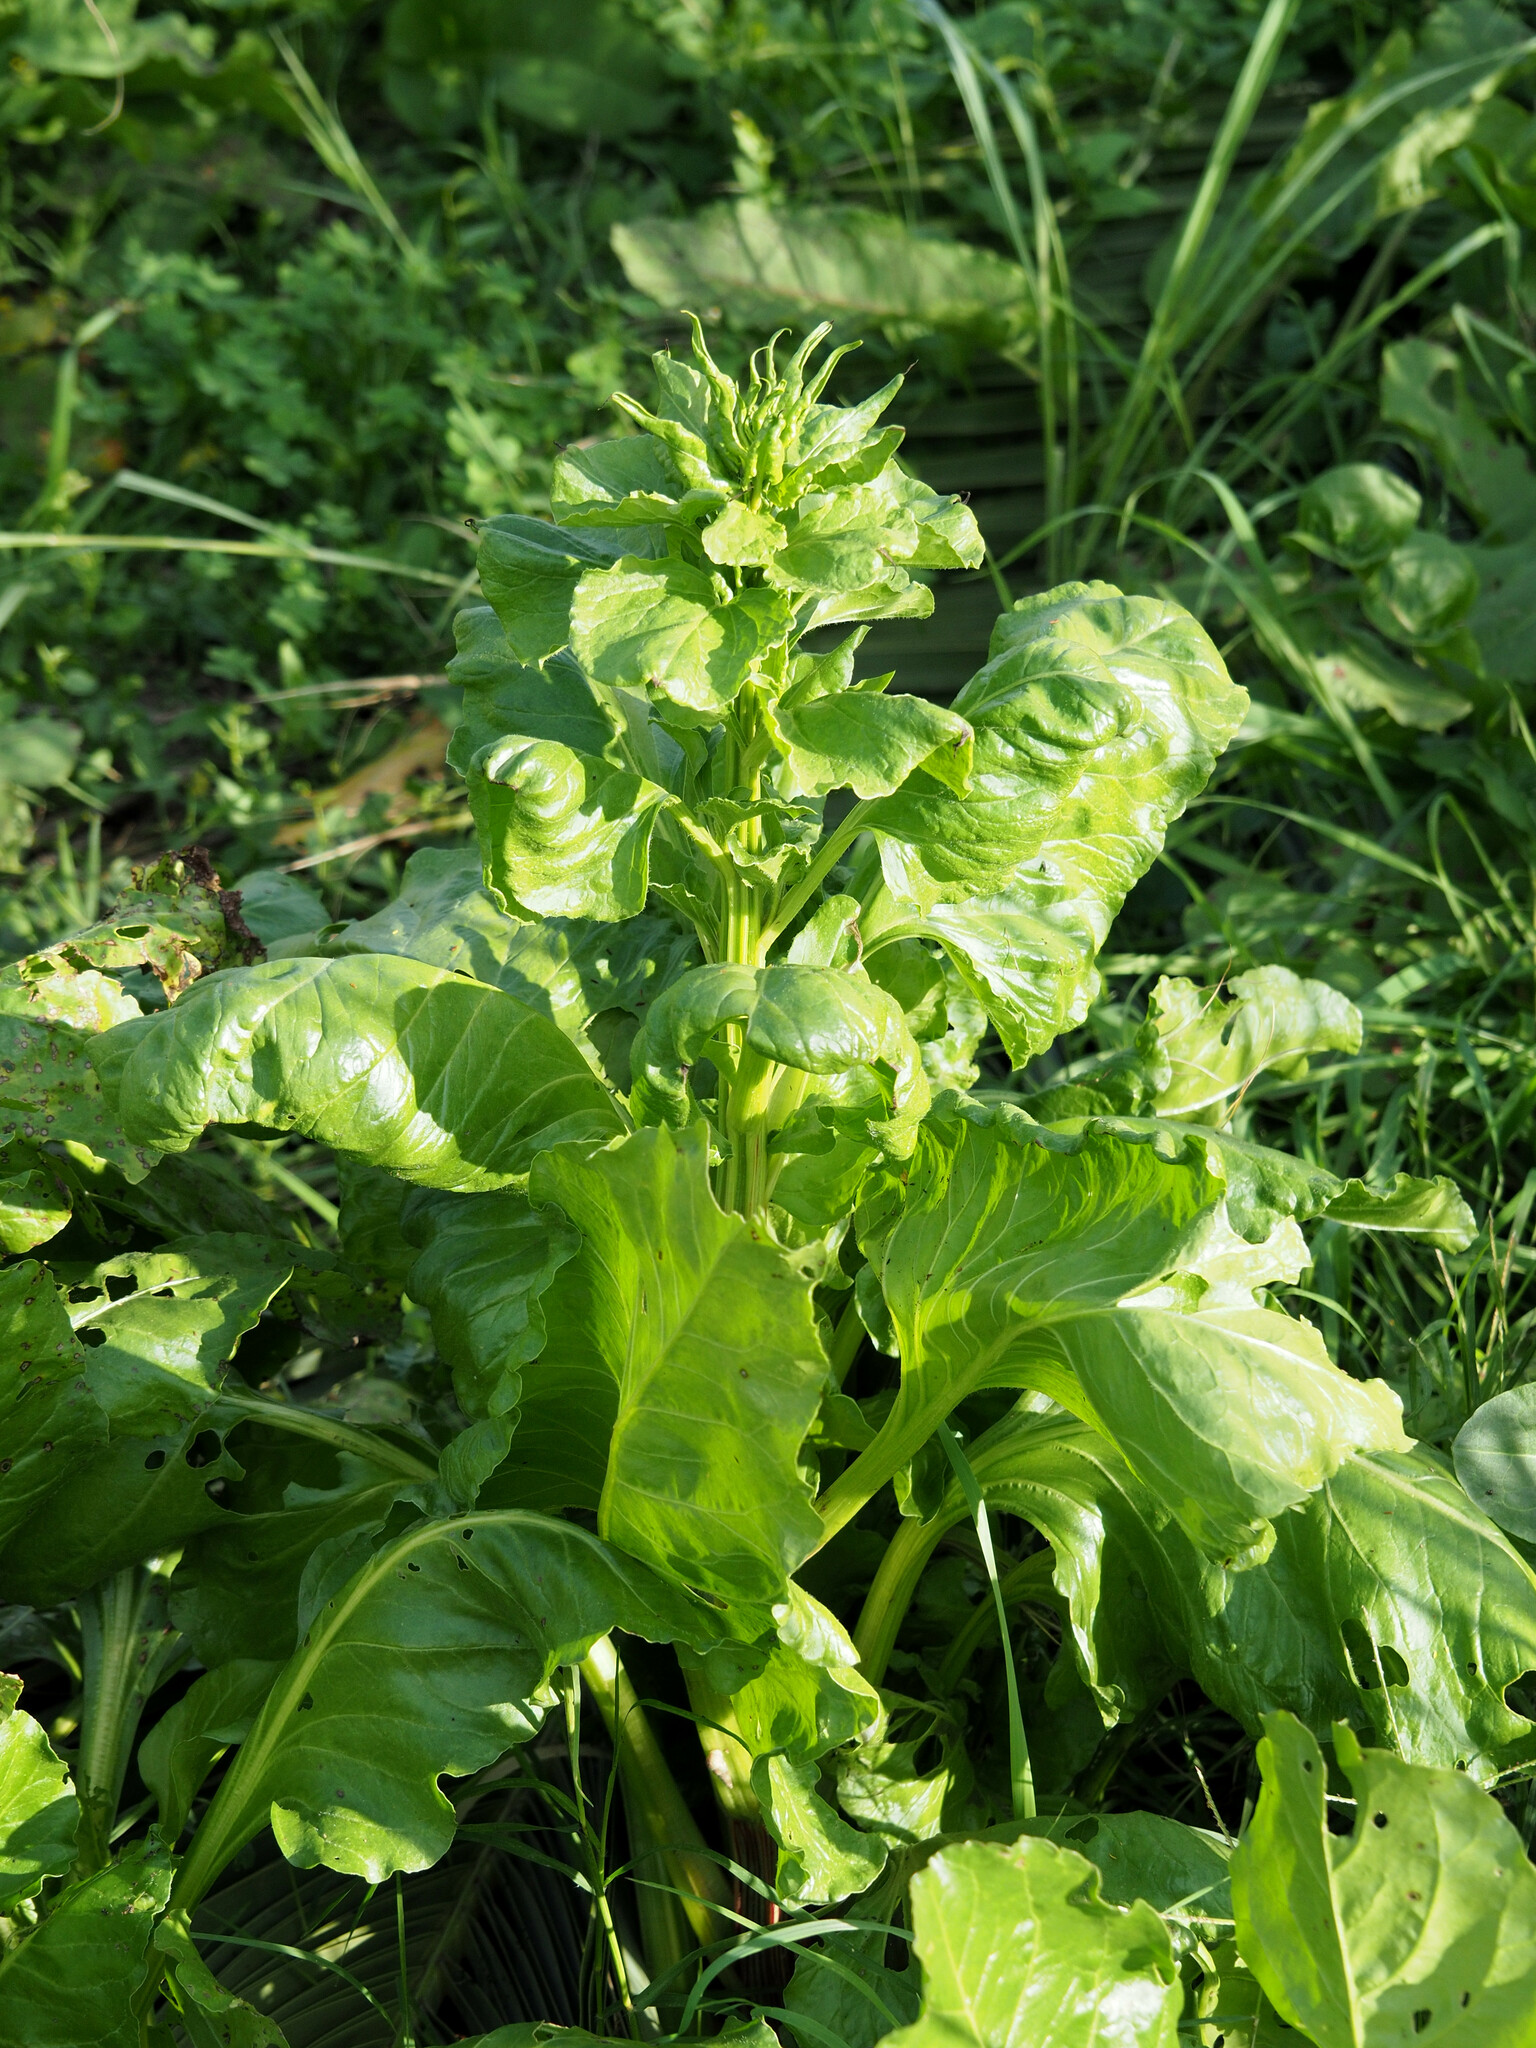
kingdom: Plantae
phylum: Tracheophyta
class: Magnoliopsida
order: Caryophyllales
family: Amaranthaceae
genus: Beta
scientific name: Beta vulgaris
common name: Beet
